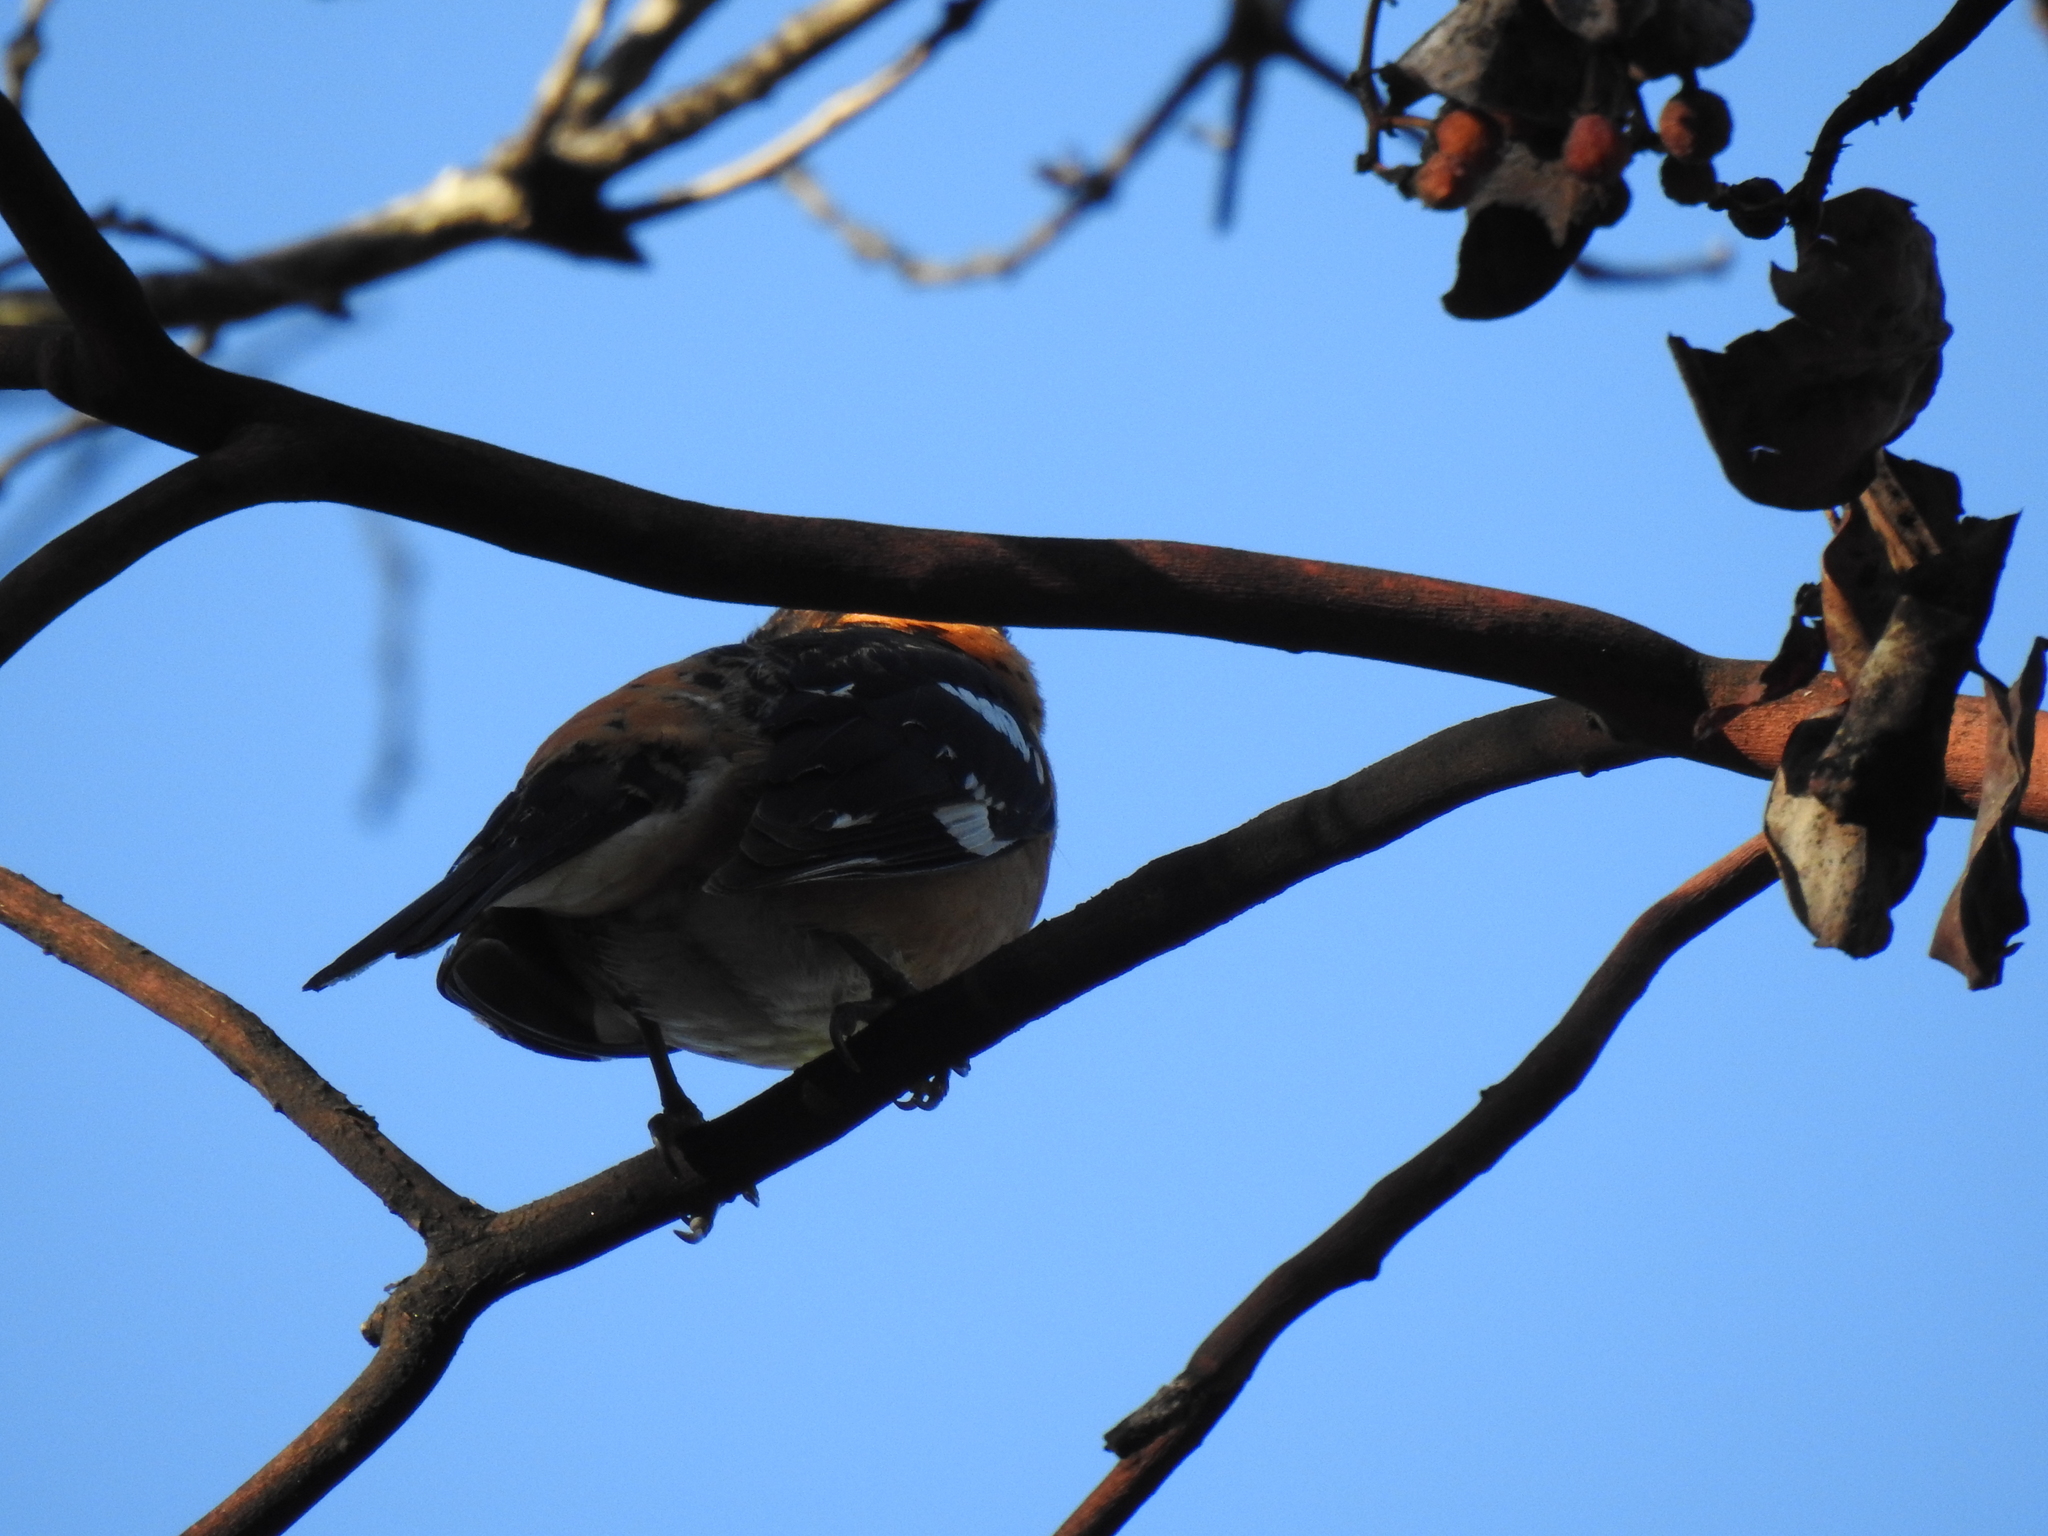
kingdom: Animalia
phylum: Chordata
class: Aves
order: Passeriformes
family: Cardinalidae
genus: Pheucticus
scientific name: Pheucticus melanocephalus
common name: Black-headed grosbeak
